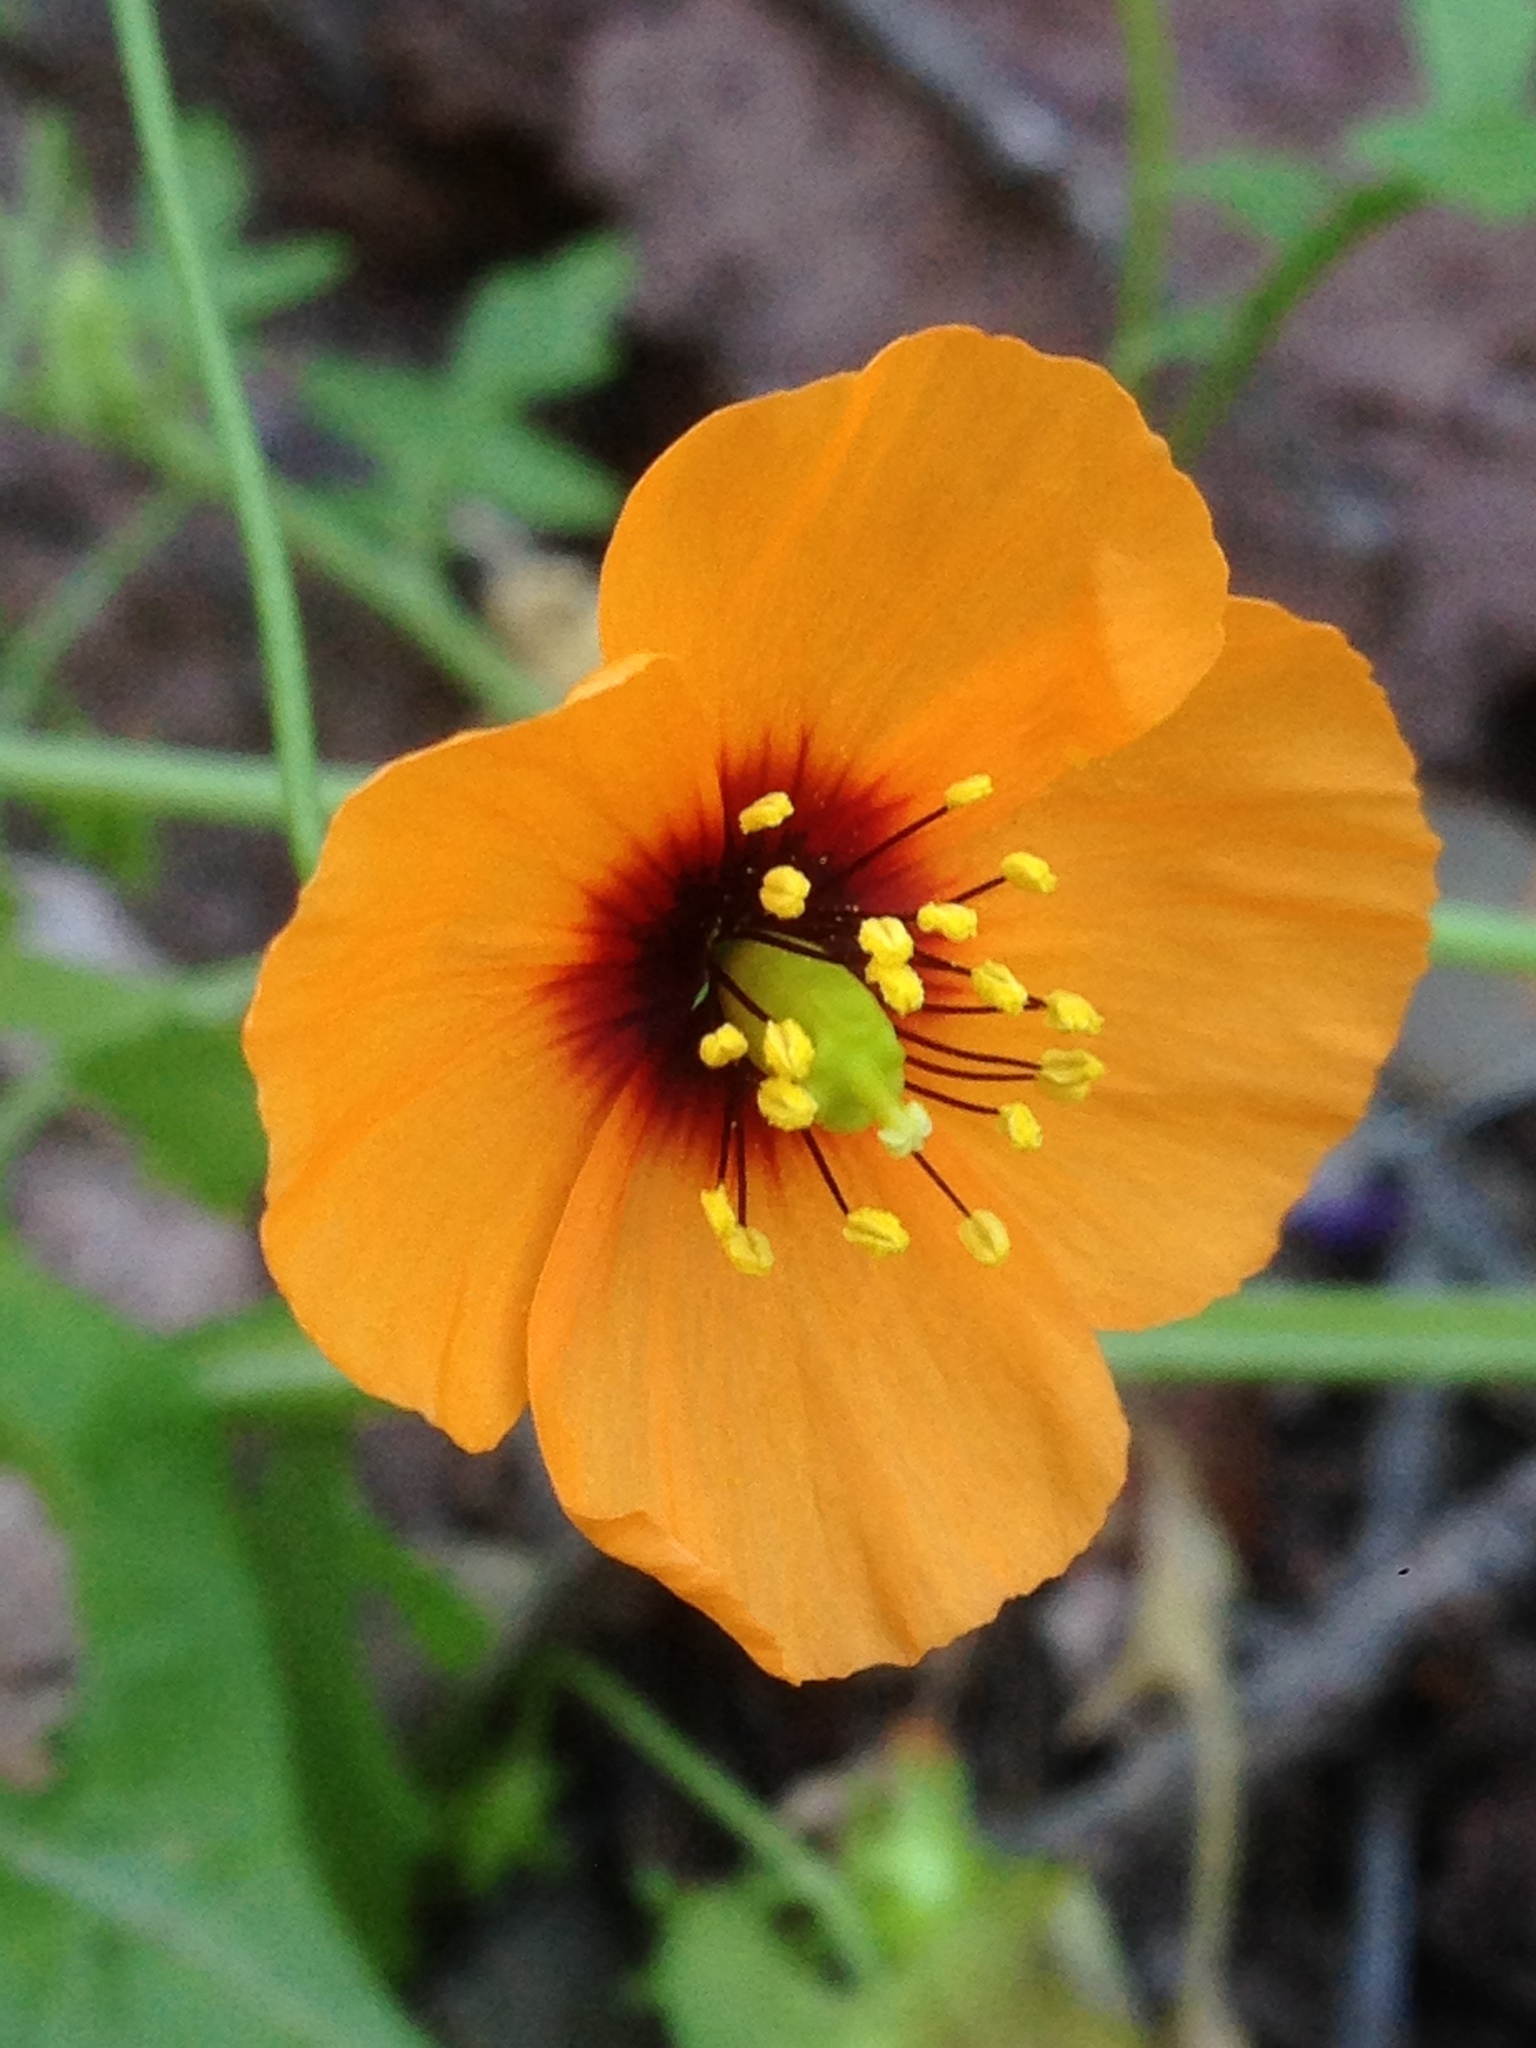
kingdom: Plantae
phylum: Tracheophyta
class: Magnoliopsida
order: Ranunculales
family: Papaveraceae
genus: Stylomecon
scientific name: Stylomecon heterophylla
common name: Flaming-poppy
